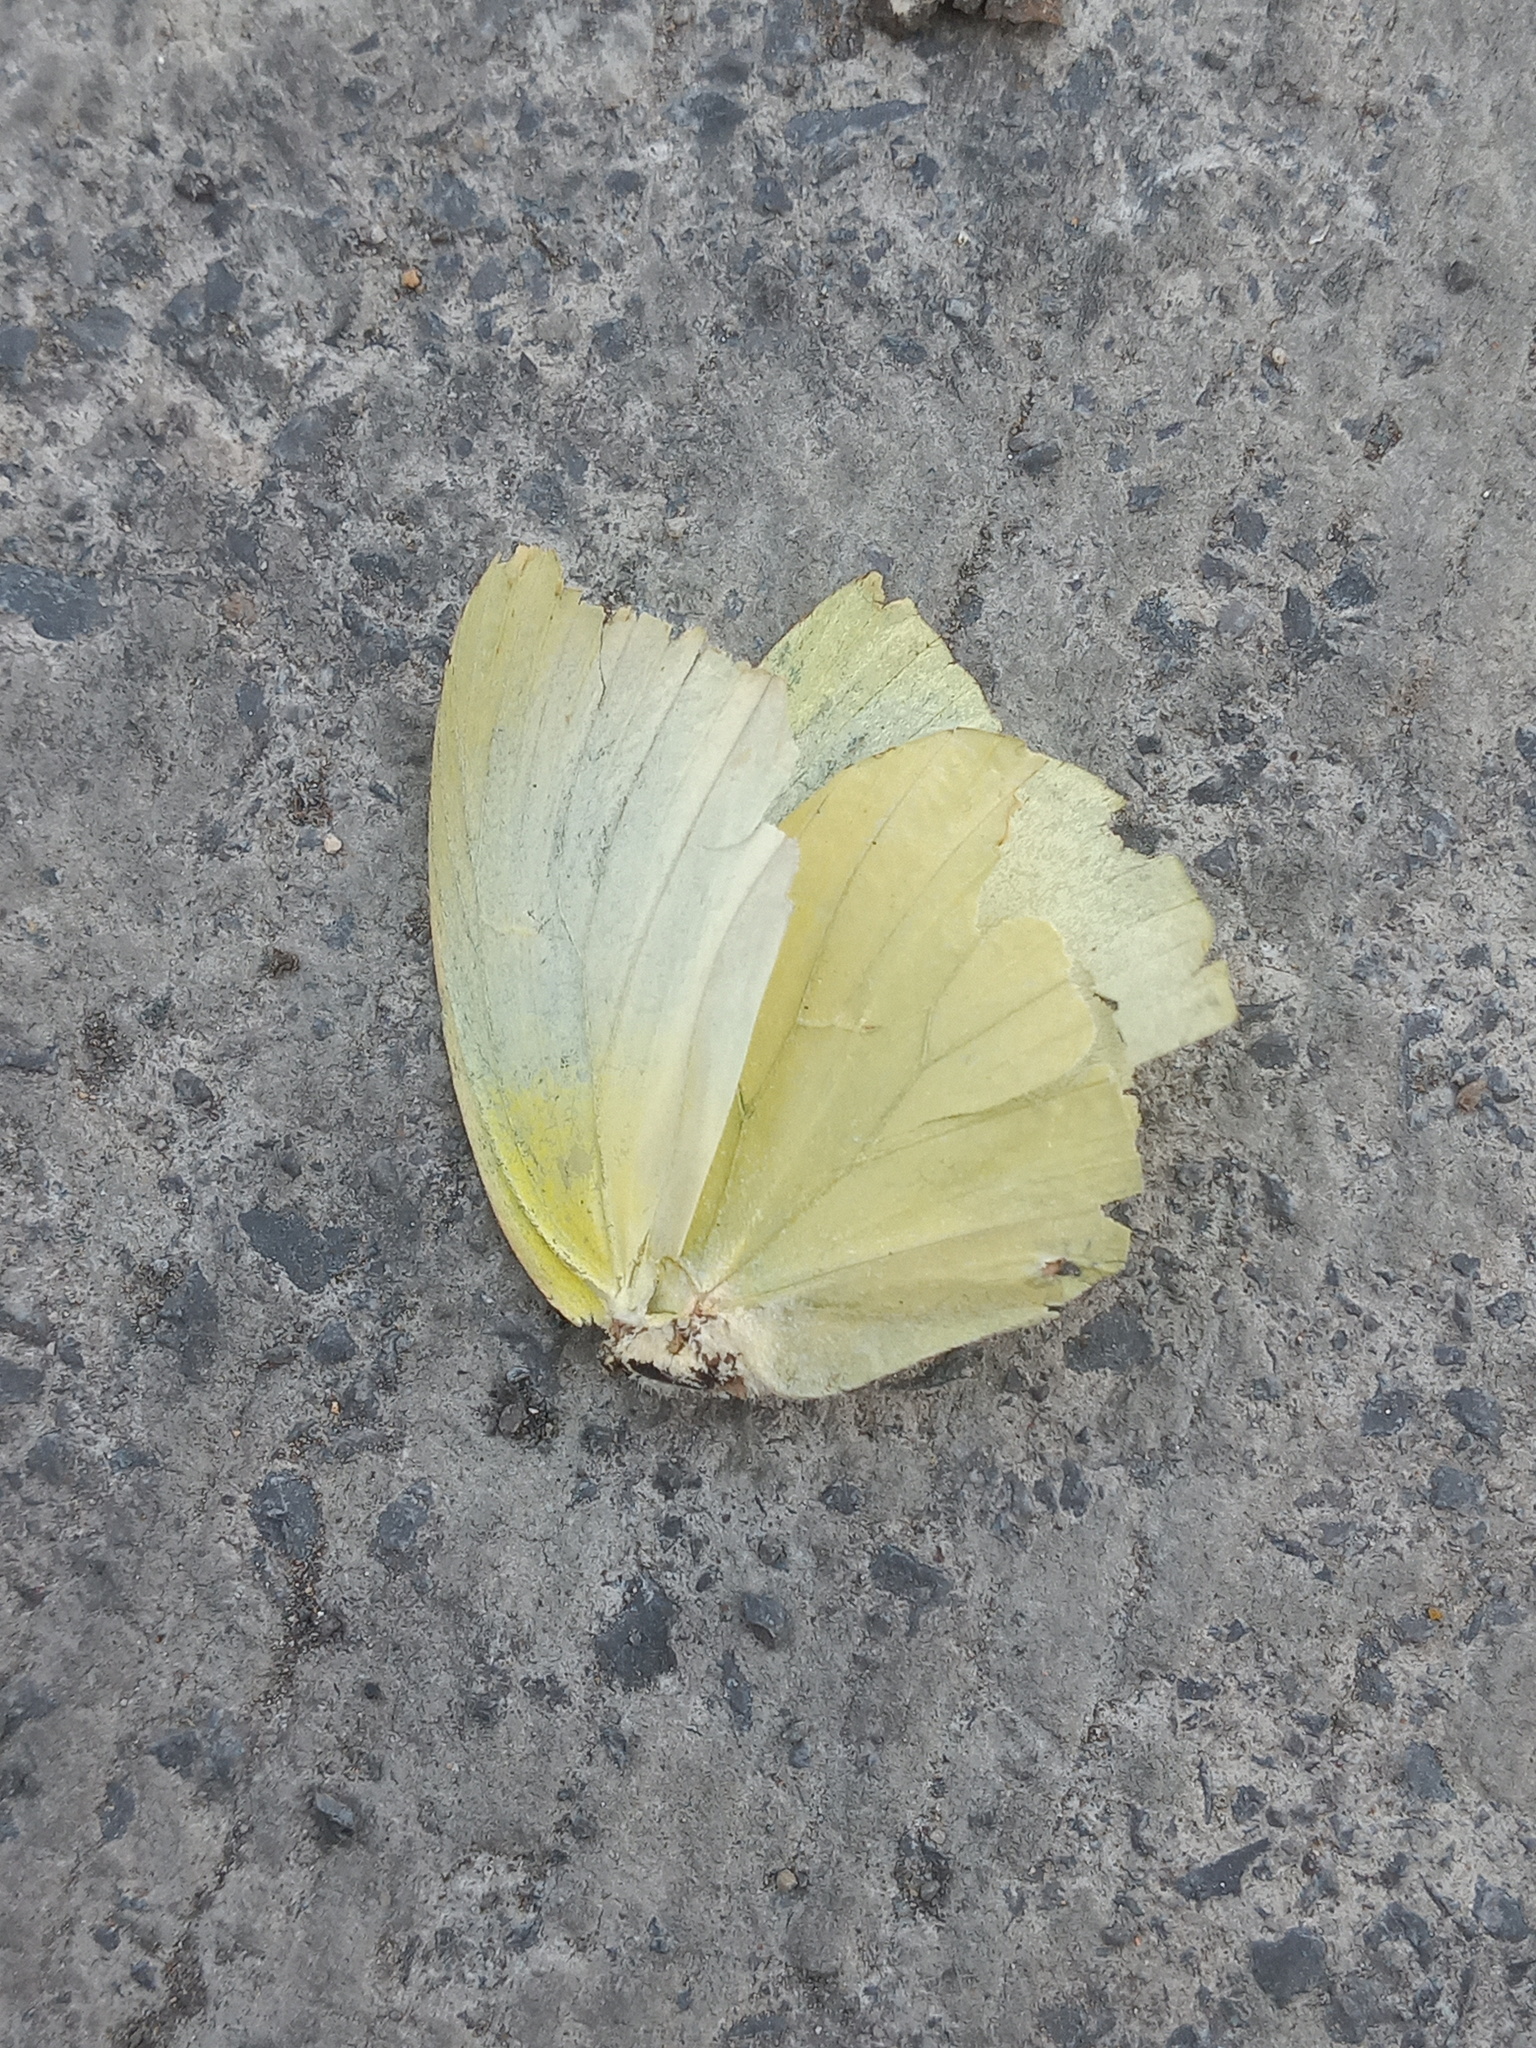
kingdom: Animalia
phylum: Arthropoda
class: Insecta
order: Lepidoptera
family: Pieridae
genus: Kricogonia
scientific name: Kricogonia lyside
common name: Guayacan sulphur,
